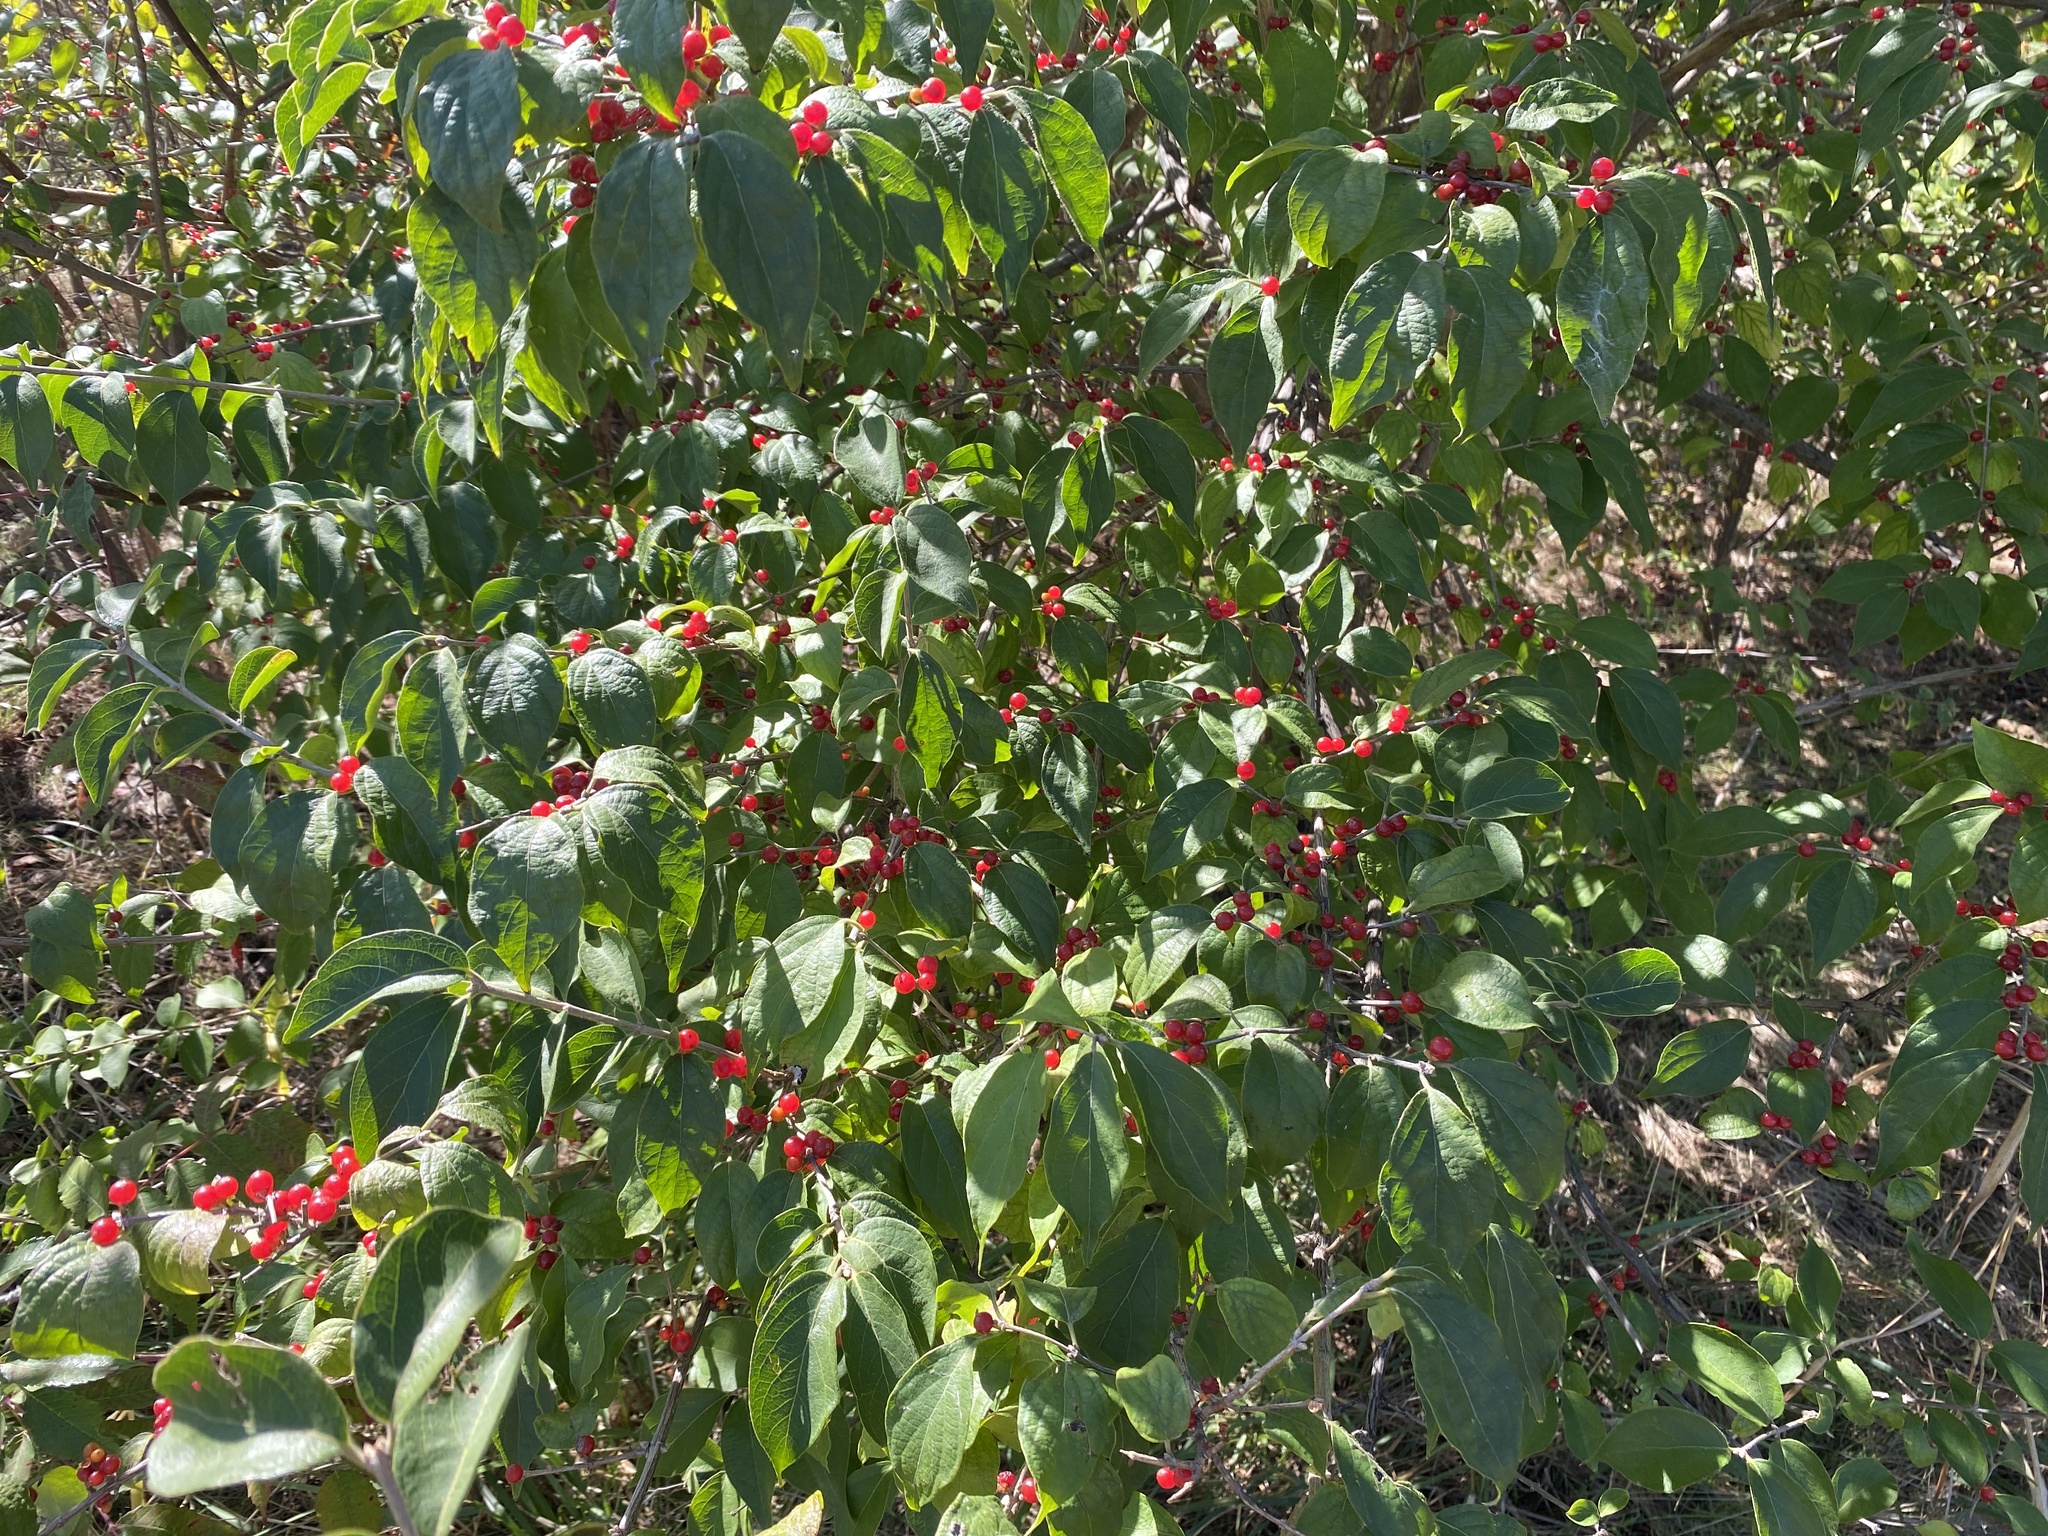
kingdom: Plantae
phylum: Tracheophyta
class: Magnoliopsida
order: Dipsacales
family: Caprifoliaceae
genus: Lonicera
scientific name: Lonicera maackii
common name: Amur honeysuckle
